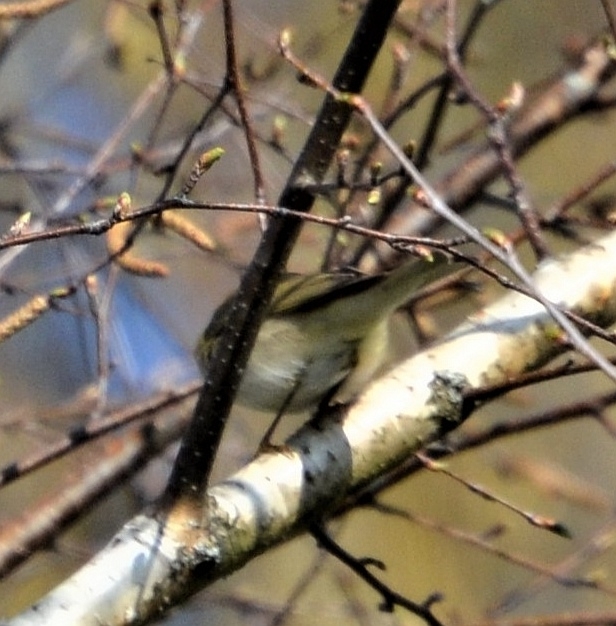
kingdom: Animalia
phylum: Chordata
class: Aves
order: Passeriformes
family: Phylloscopidae
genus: Phylloscopus
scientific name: Phylloscopus collybita
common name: Common chiffchaff
